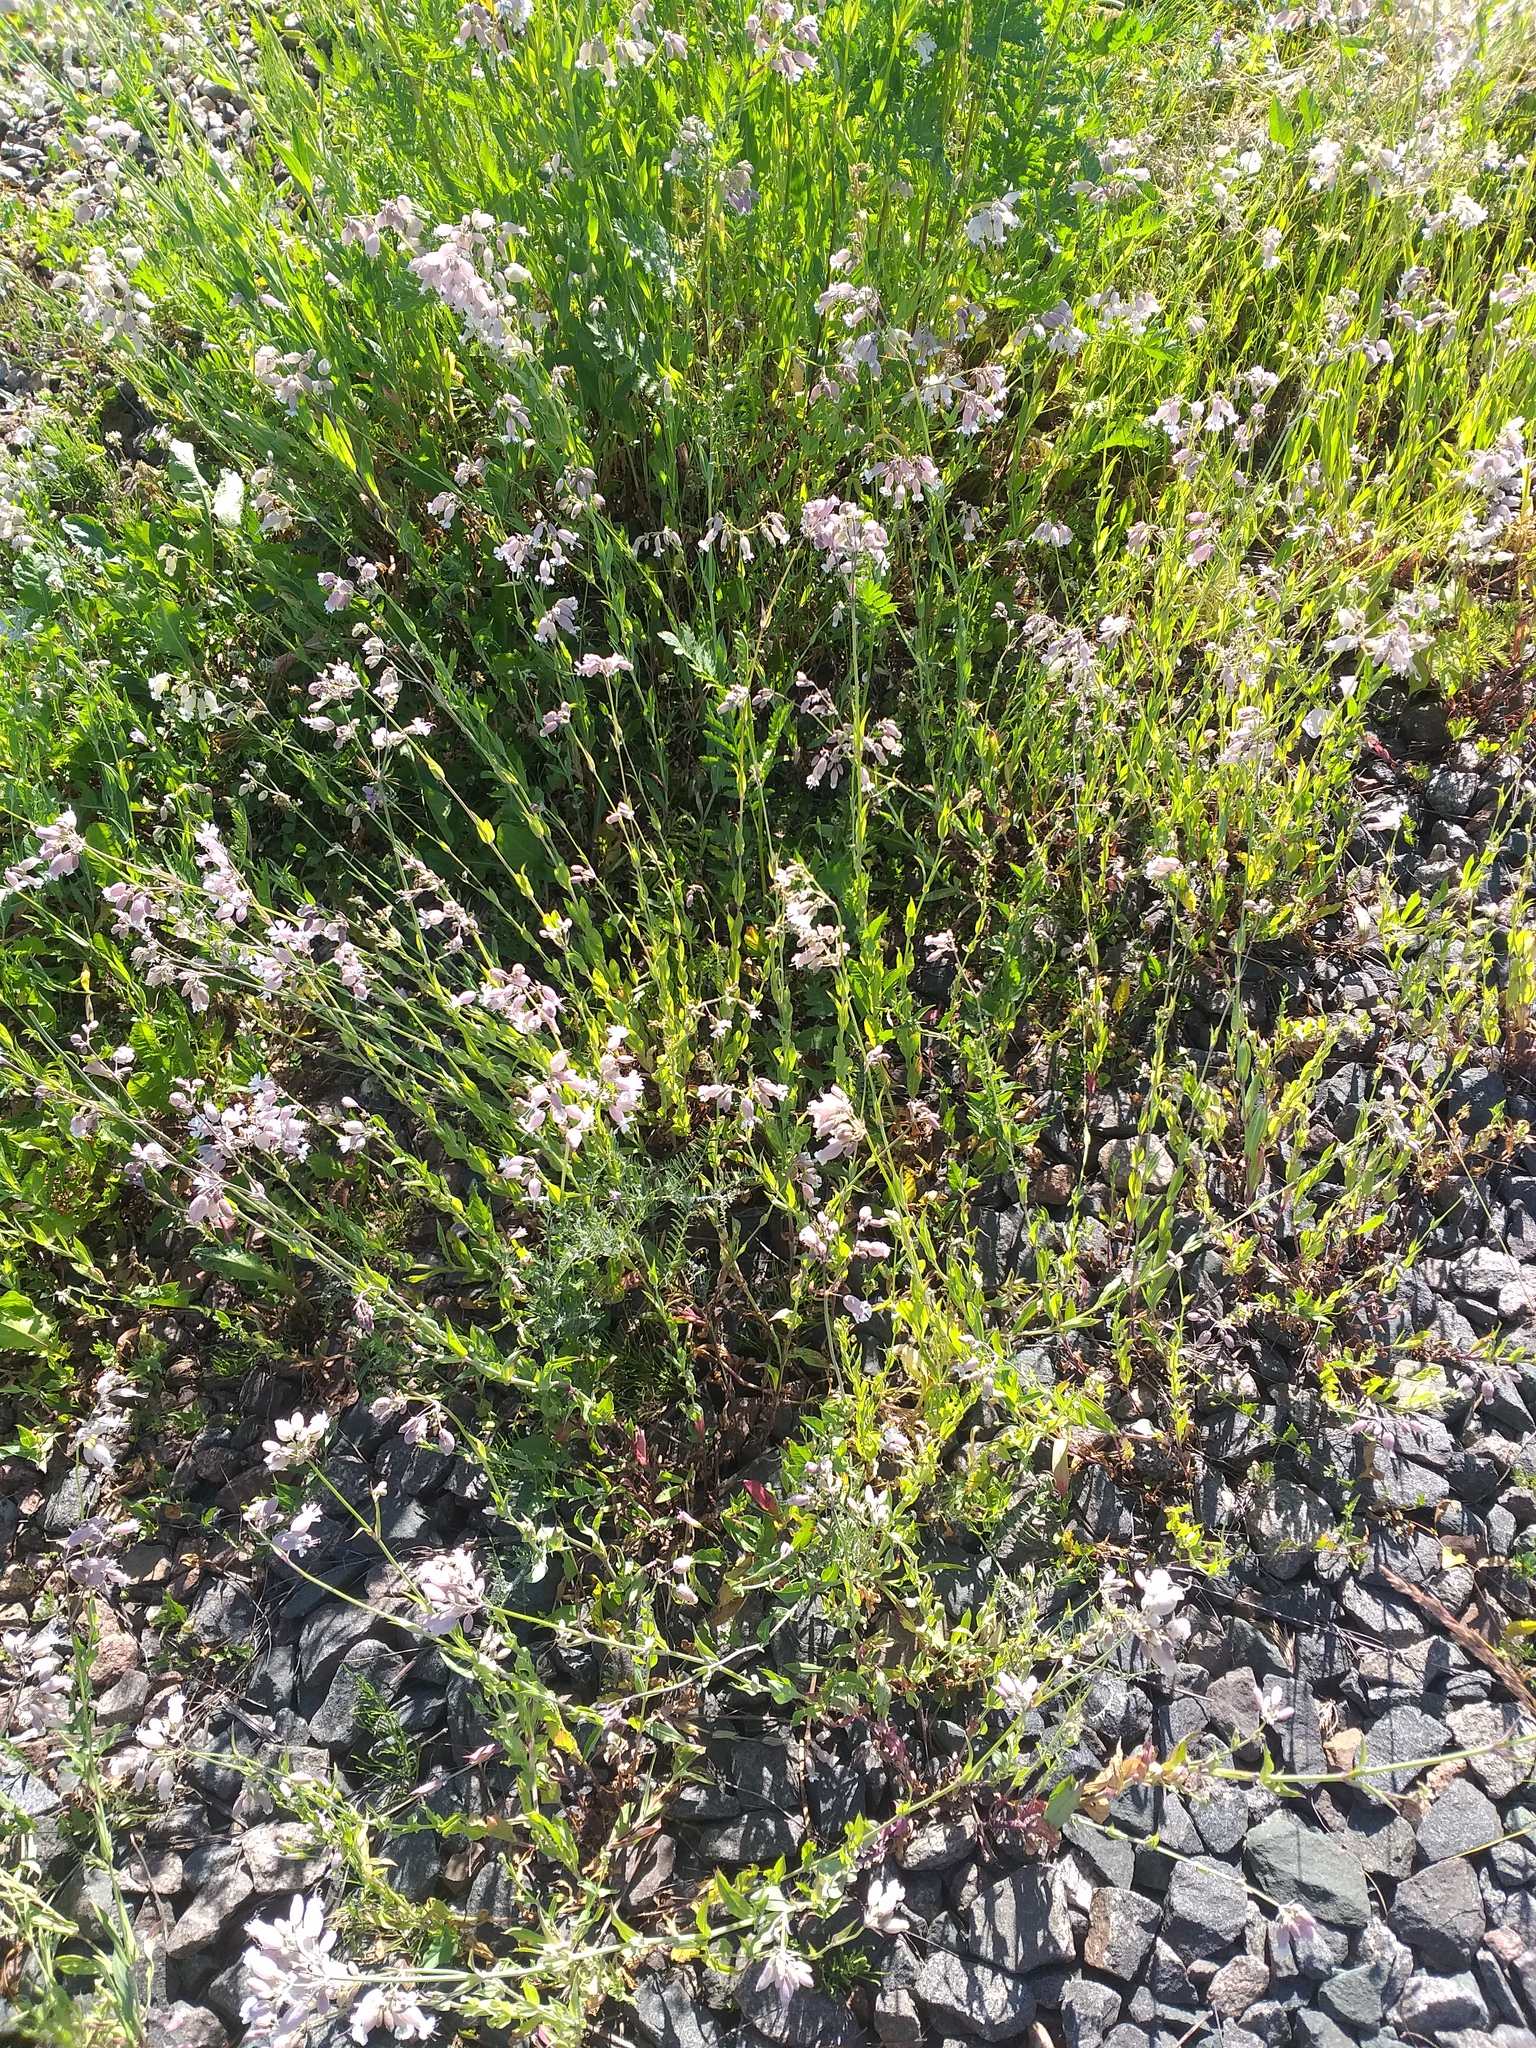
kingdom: Plantae
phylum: Tracheophyta
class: Magnoliopsida
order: Caryophyllales
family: Caryophyllaceae
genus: Silene
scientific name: Silene vulgaris
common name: Bladder campion
